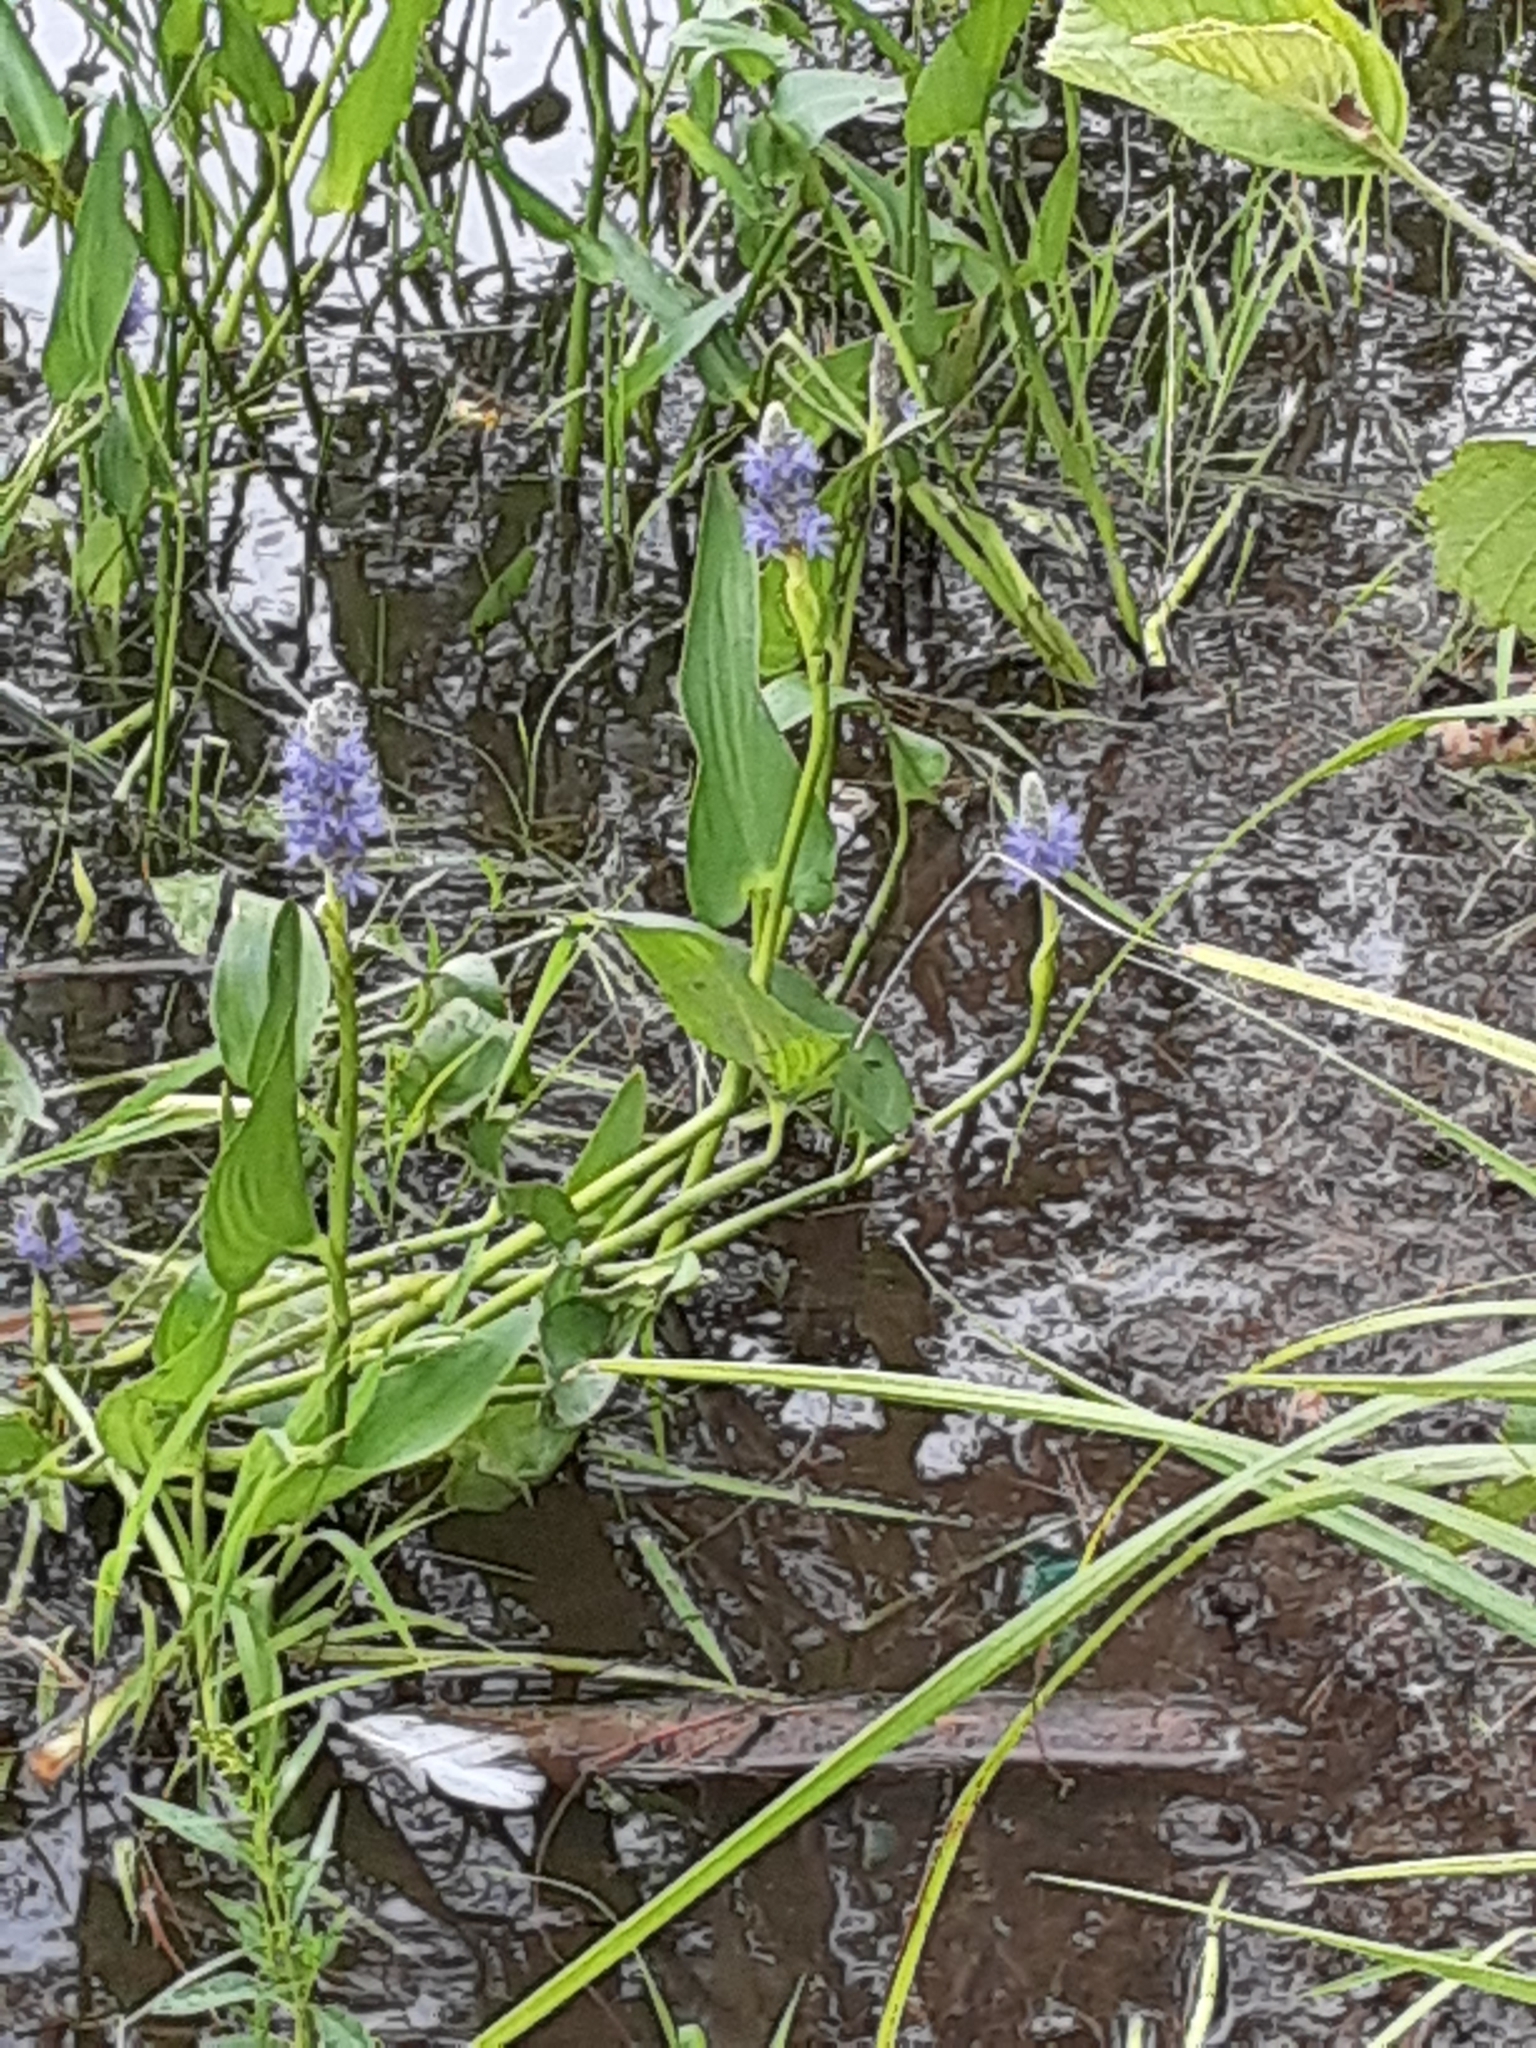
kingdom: Plantae
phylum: Tracheophyta
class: Liliopsida
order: Commelinales
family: Pontederiaceae
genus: Pontederia
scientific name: Pontederia cordata
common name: Pickerelweed
